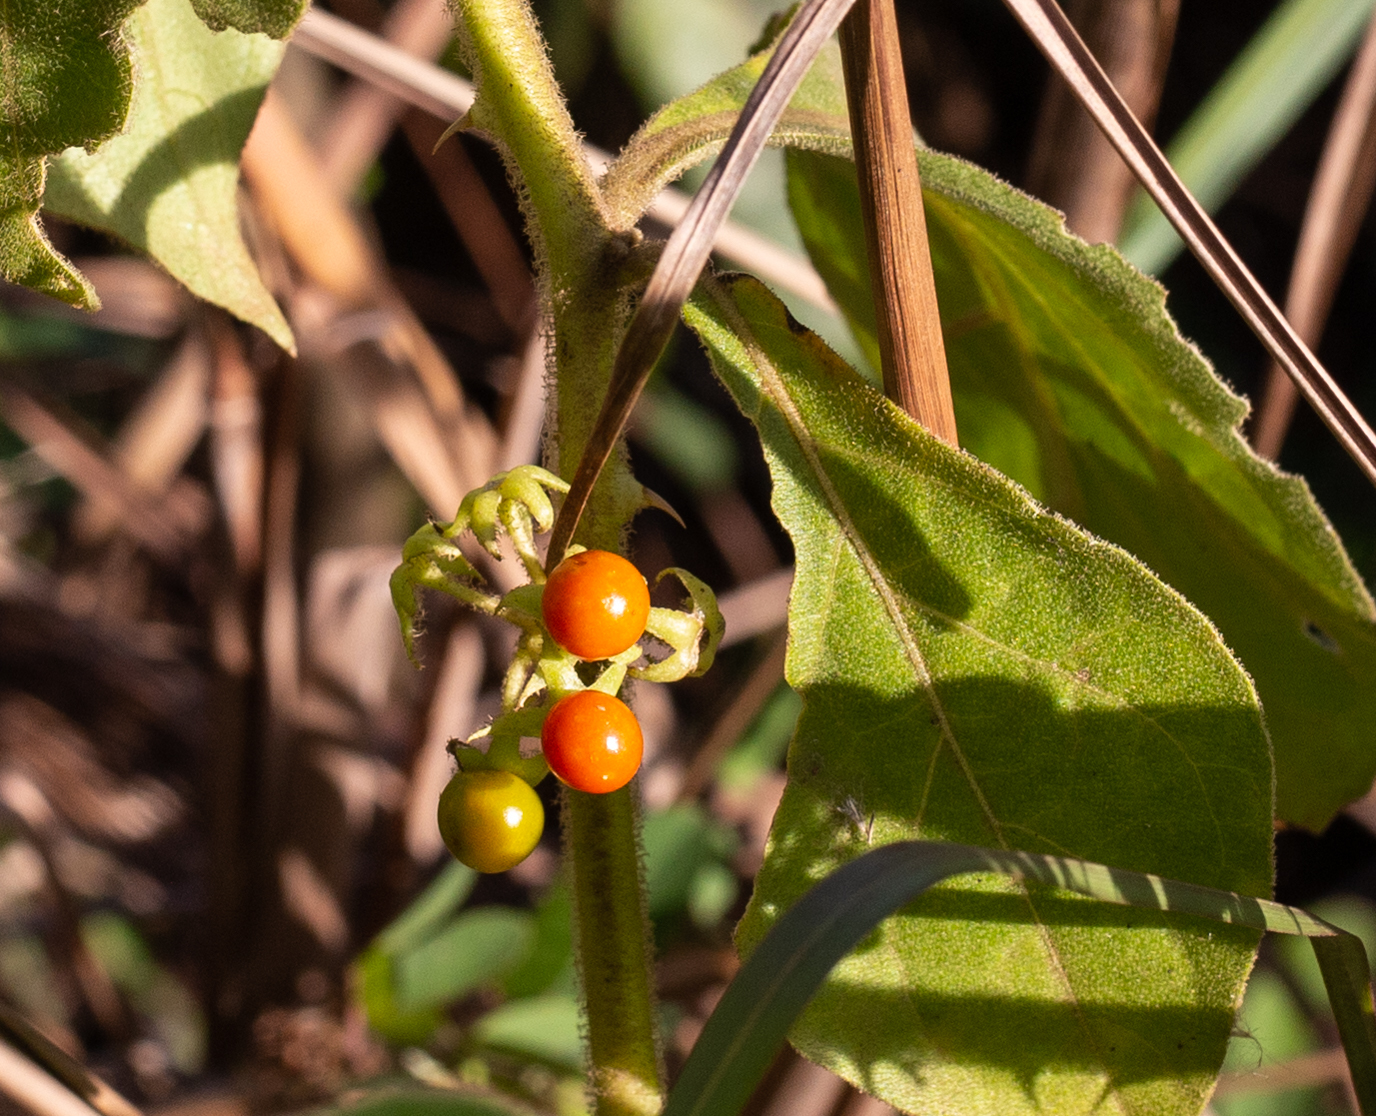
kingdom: Plantae
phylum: Tracheophyta
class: Magnoliopsida
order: Solanales
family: Solanaceae
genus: Solanum
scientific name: Solanum jamaicense
